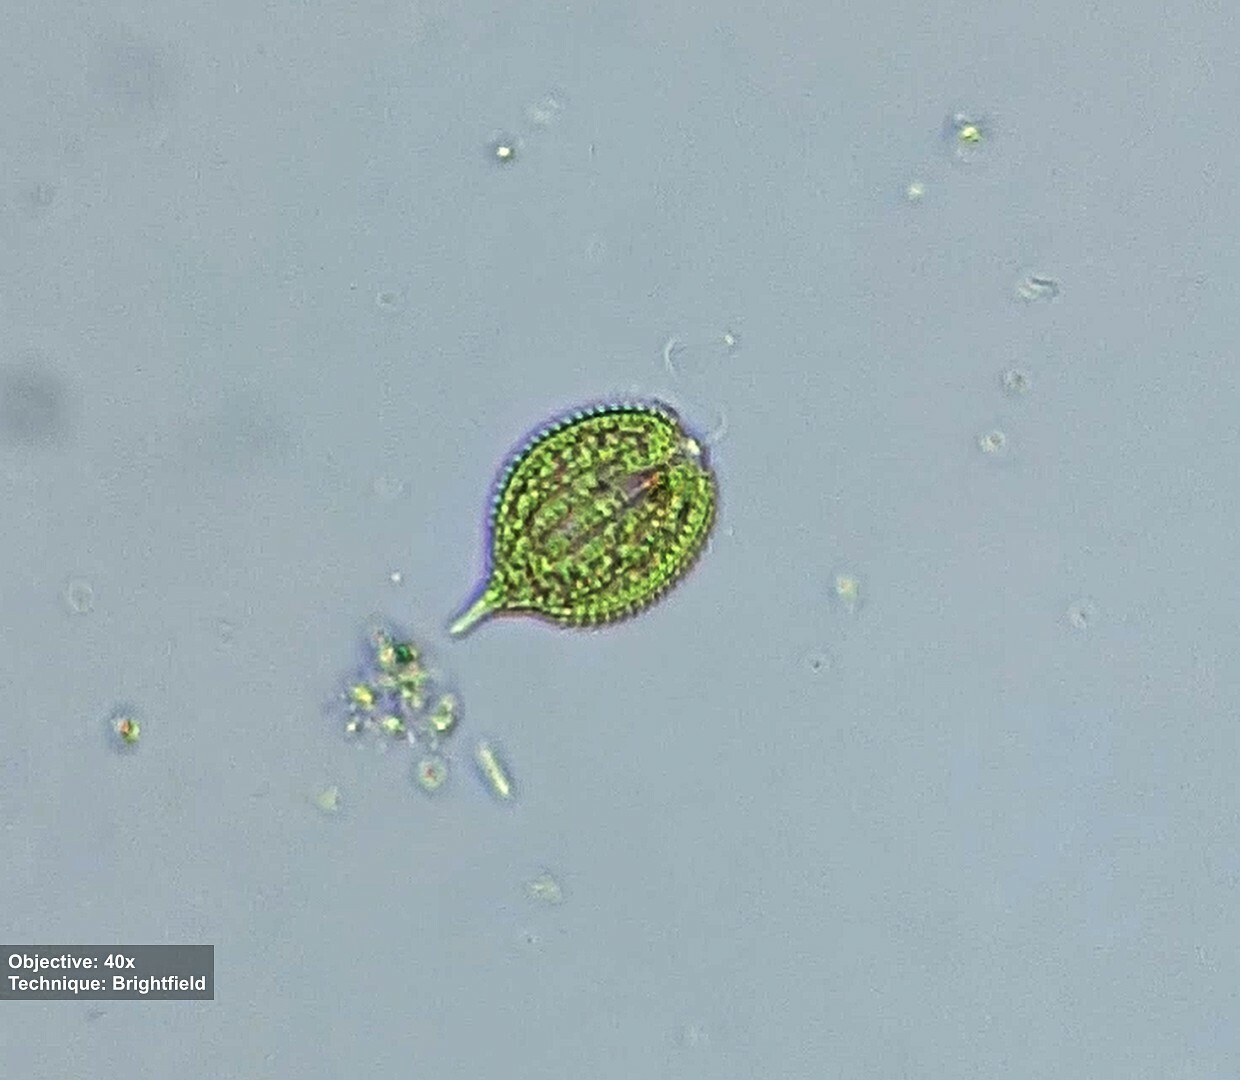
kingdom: Protozoa
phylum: Euglenozoa
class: Euglenoidea
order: Euglenida
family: Phacidae
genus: Phacus
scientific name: Phacus monilatus
